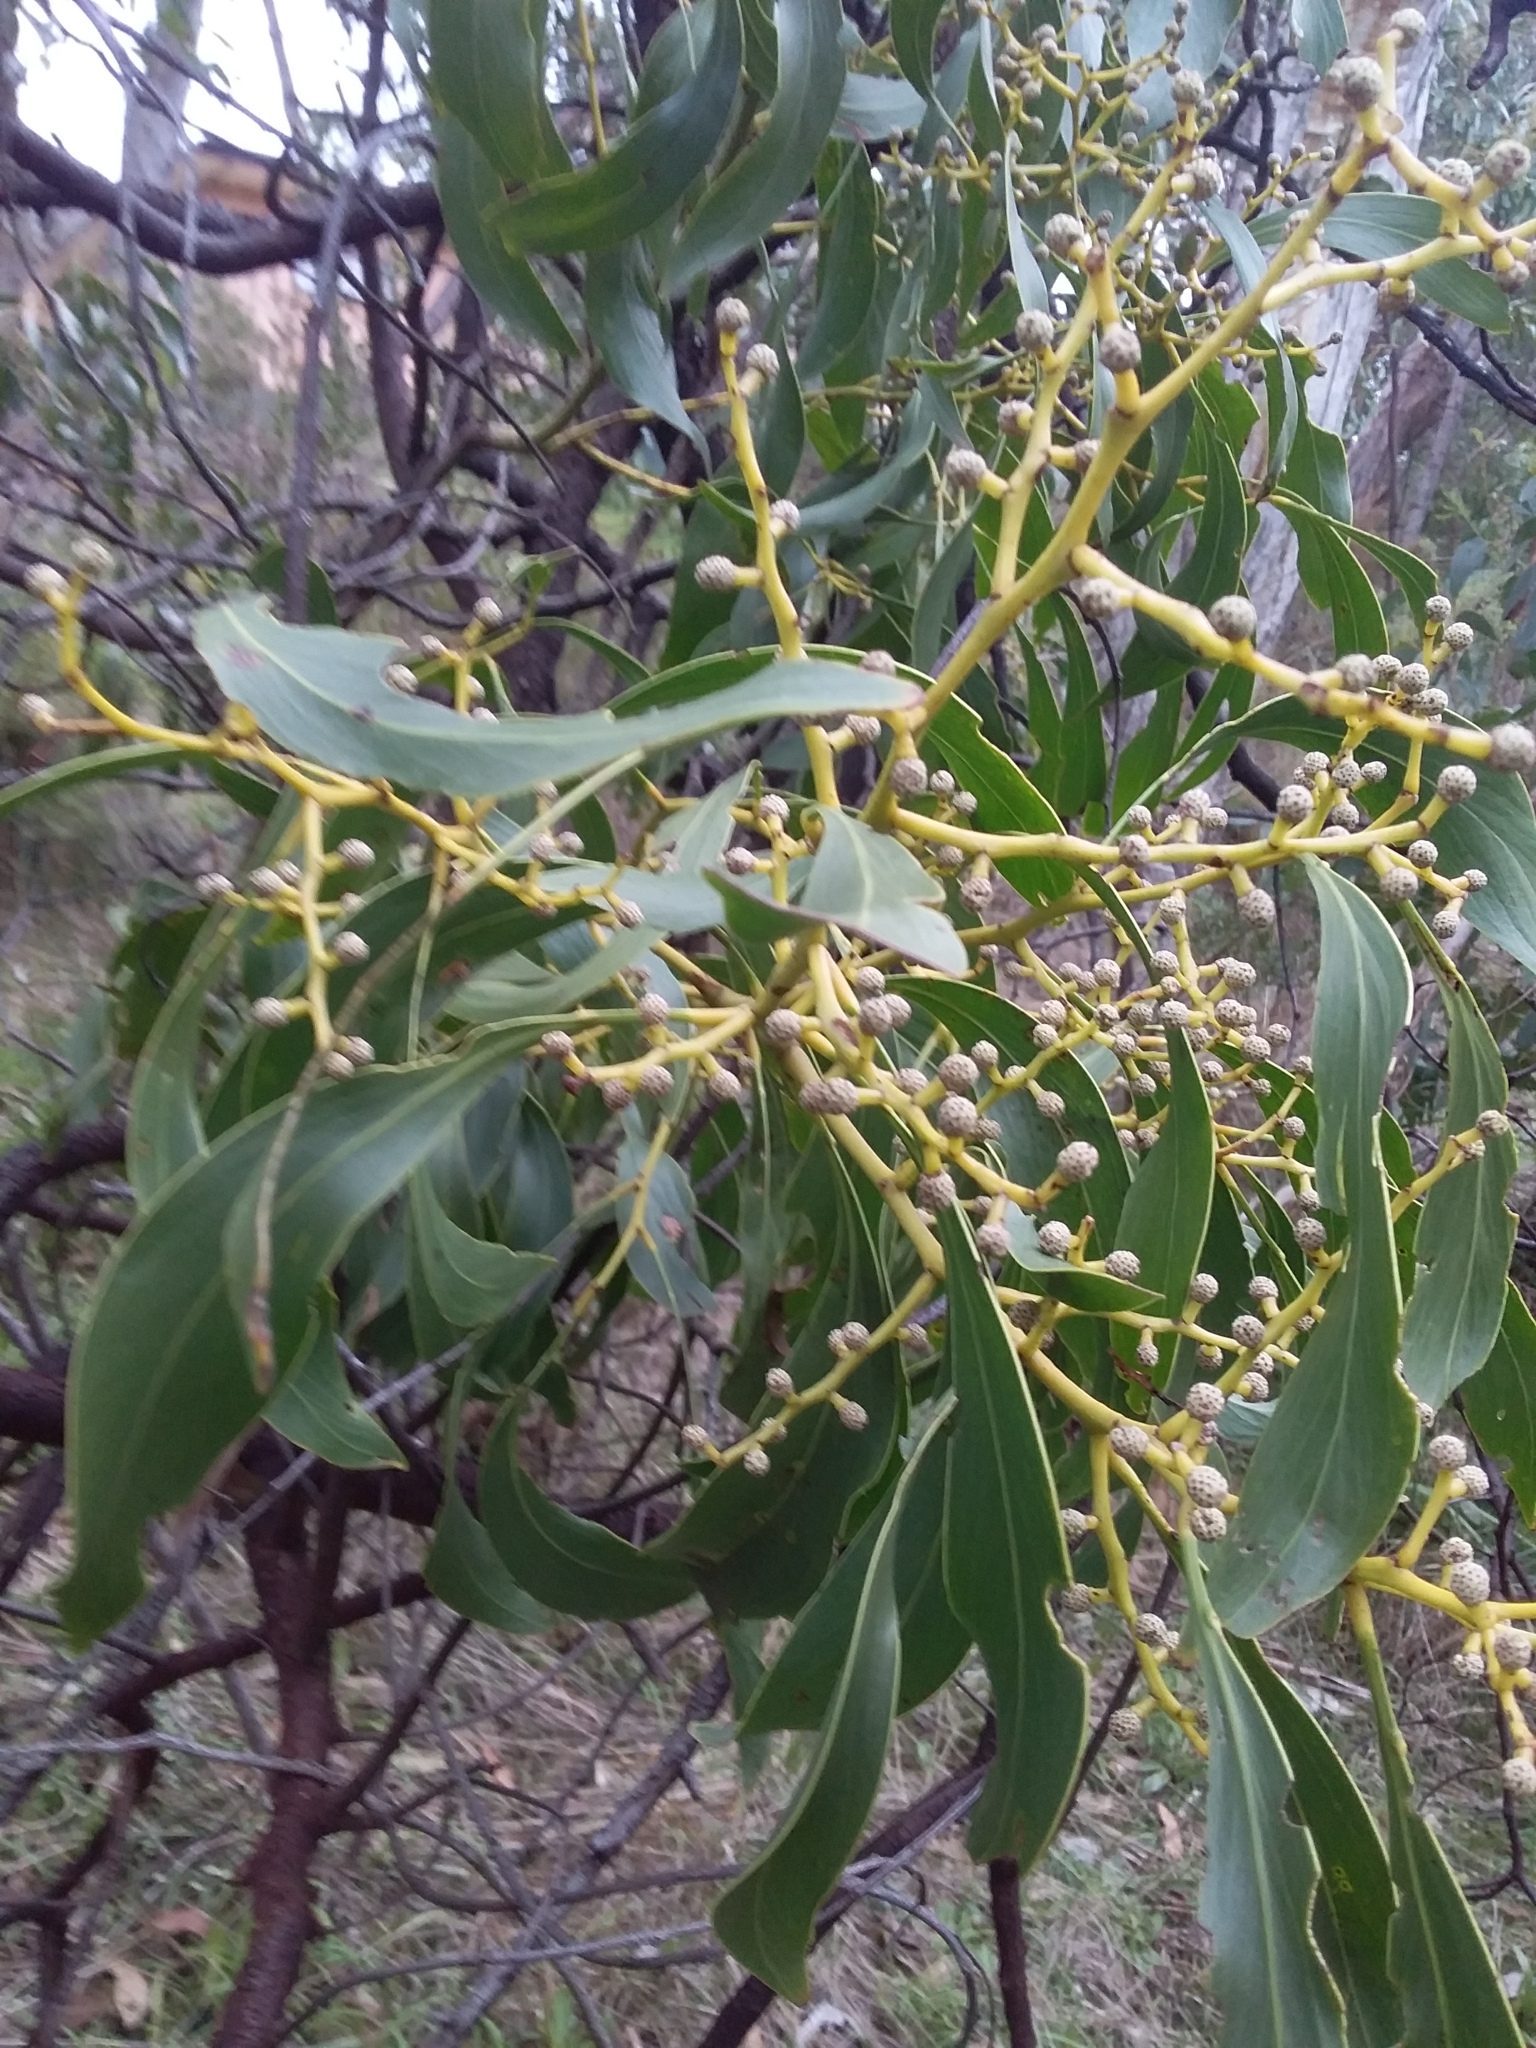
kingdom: Plantae
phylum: Tracheophyta
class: Magnoliopsida
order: Fabales
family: Fabaceae
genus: Acacia
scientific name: Acacia pycnantha
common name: Golden wattle
